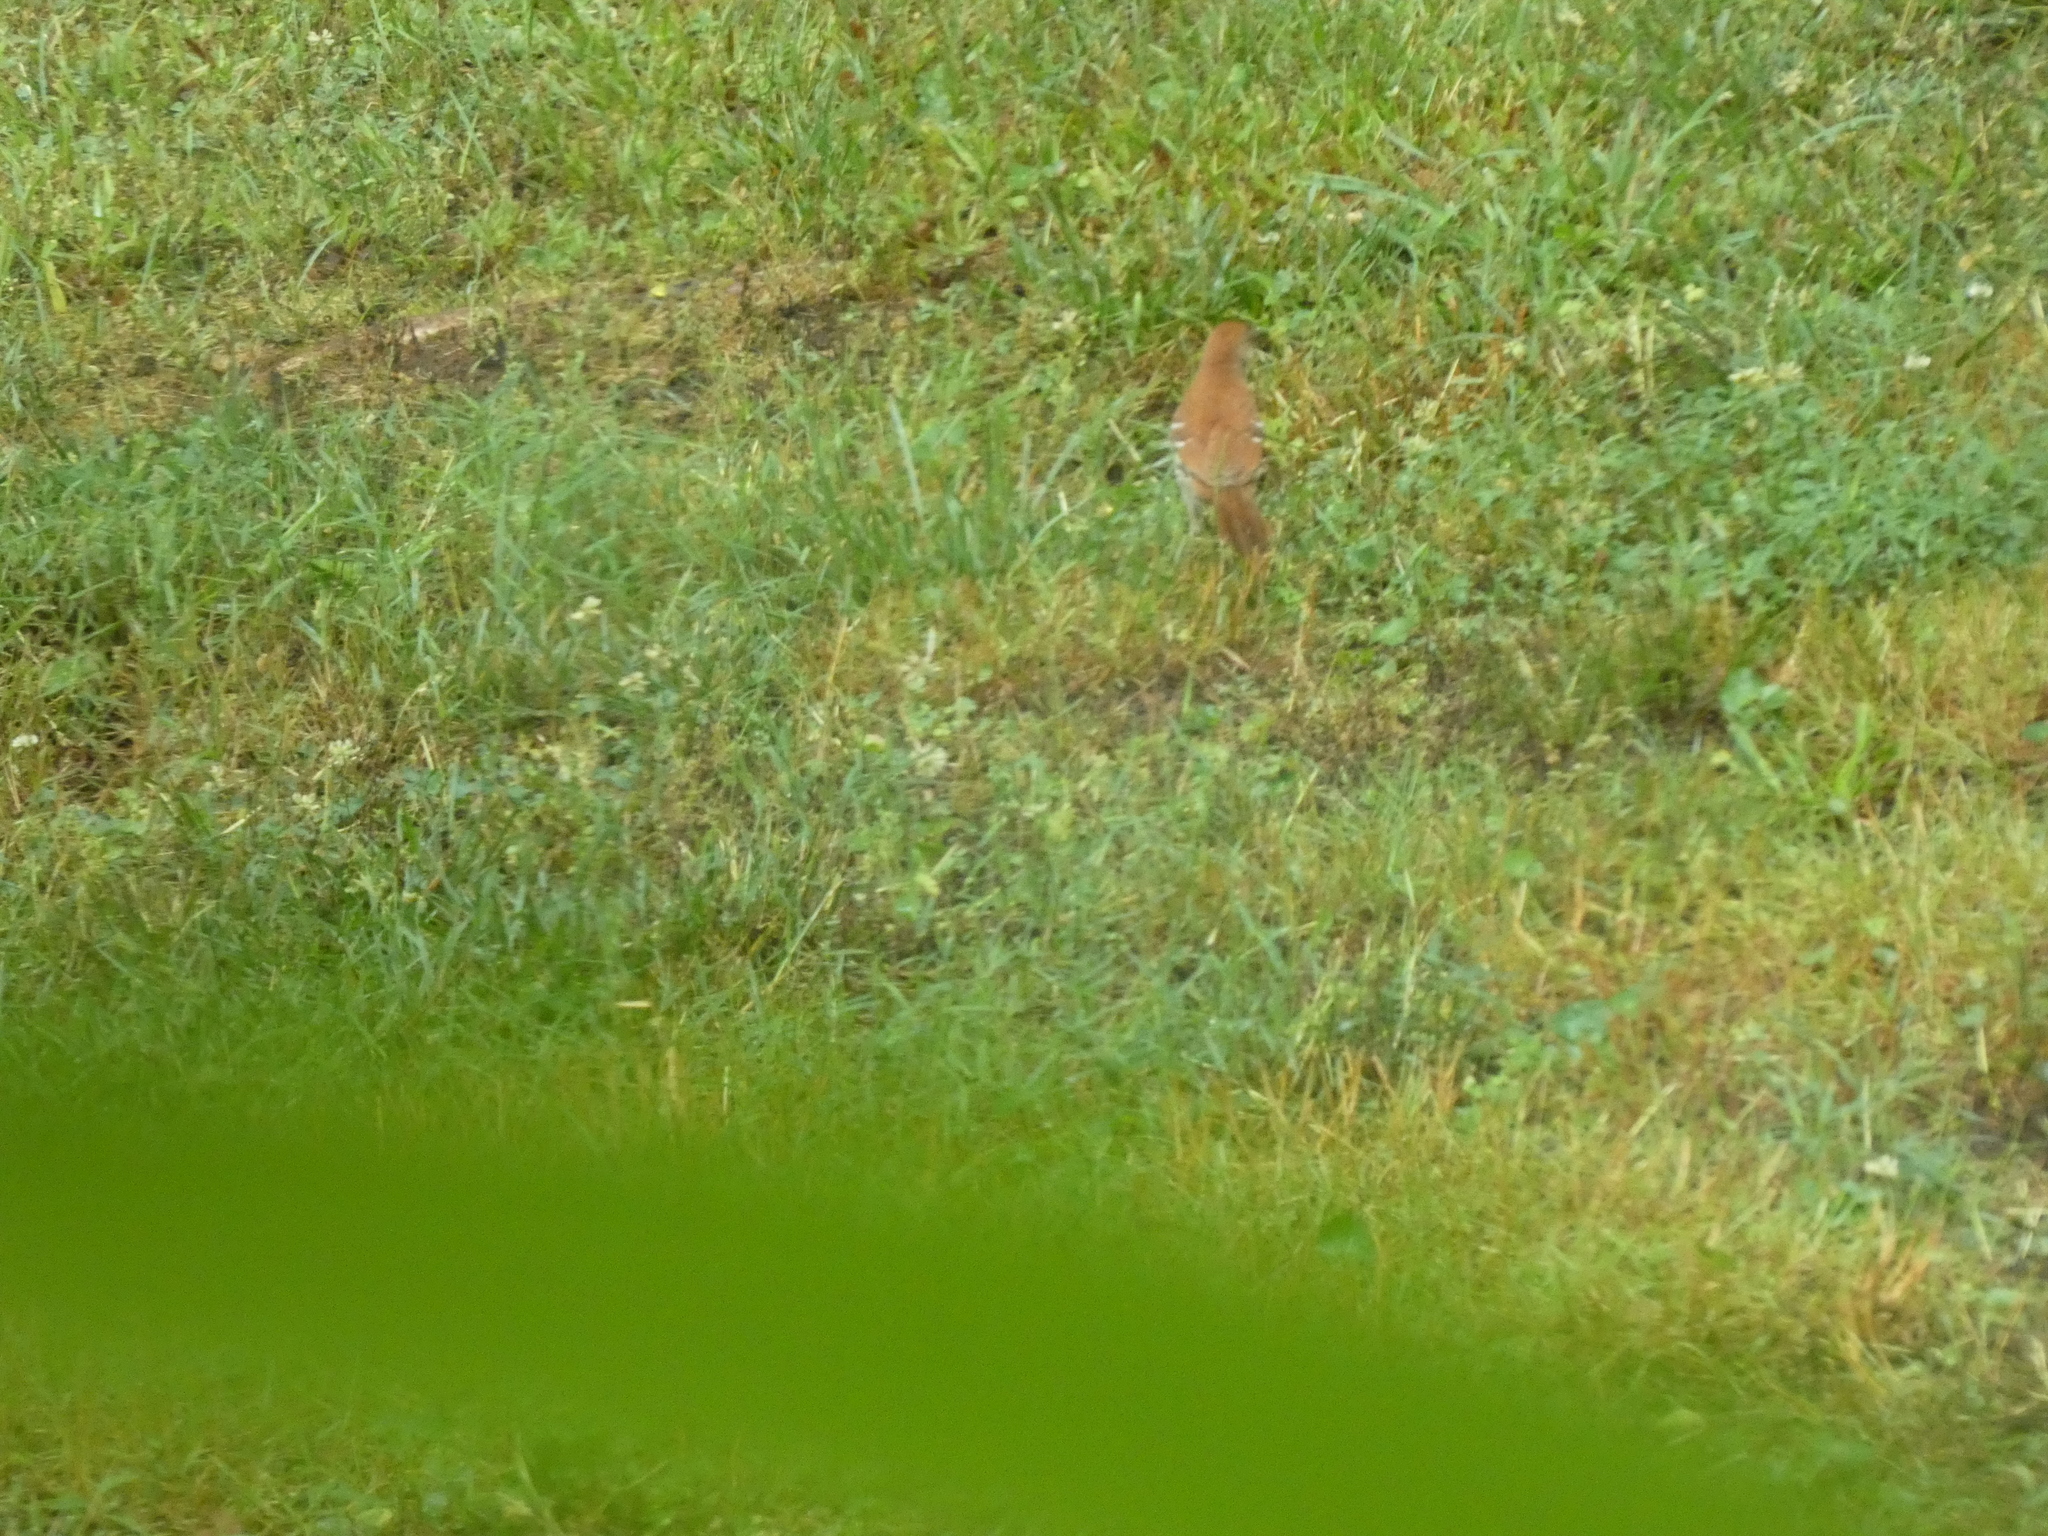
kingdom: Animalia
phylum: Chordata
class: Aves
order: Passeriformes
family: Mimidae
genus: Toxostoma
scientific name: Toxostoma rufum
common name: Brown thrasher
